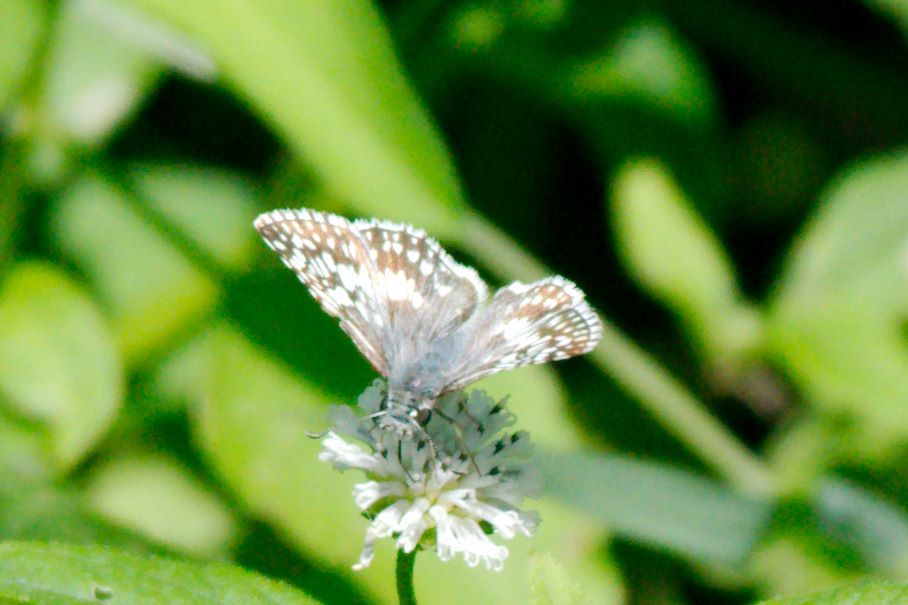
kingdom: Animalia
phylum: Arthropoda
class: Insecta
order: Lepidoptera
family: Hesperiidae
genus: Burnsius
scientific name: Burnsius albezens
